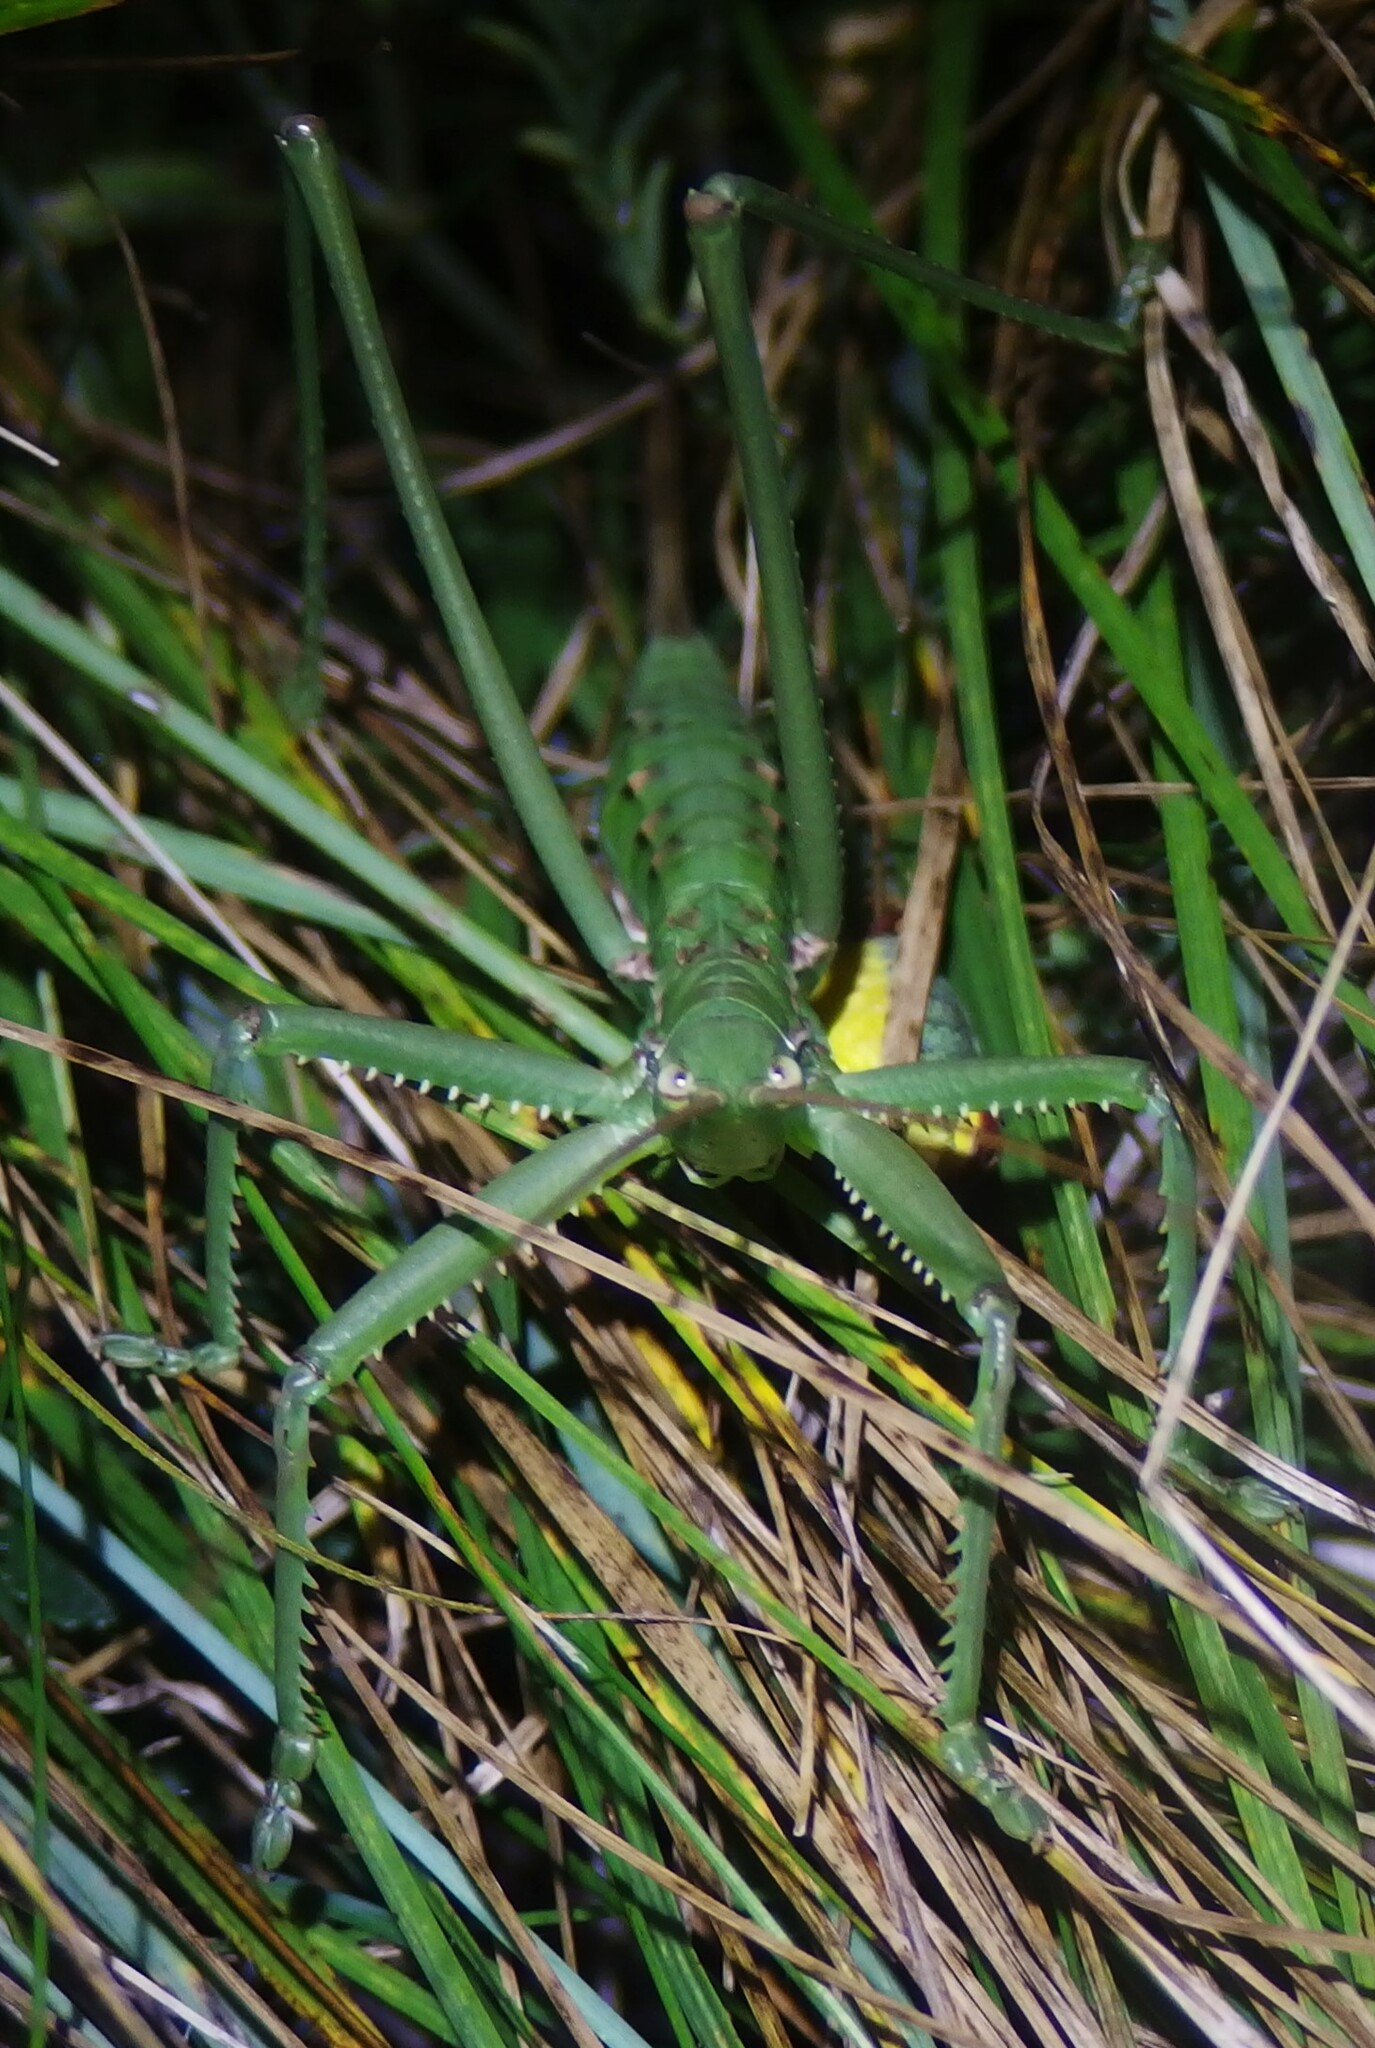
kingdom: Animalia
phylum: Arthropoda
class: Insecta
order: Orthoptera
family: Tettigoniidae
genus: Saga
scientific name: Saga pedo
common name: Common predatory bush-cricket
